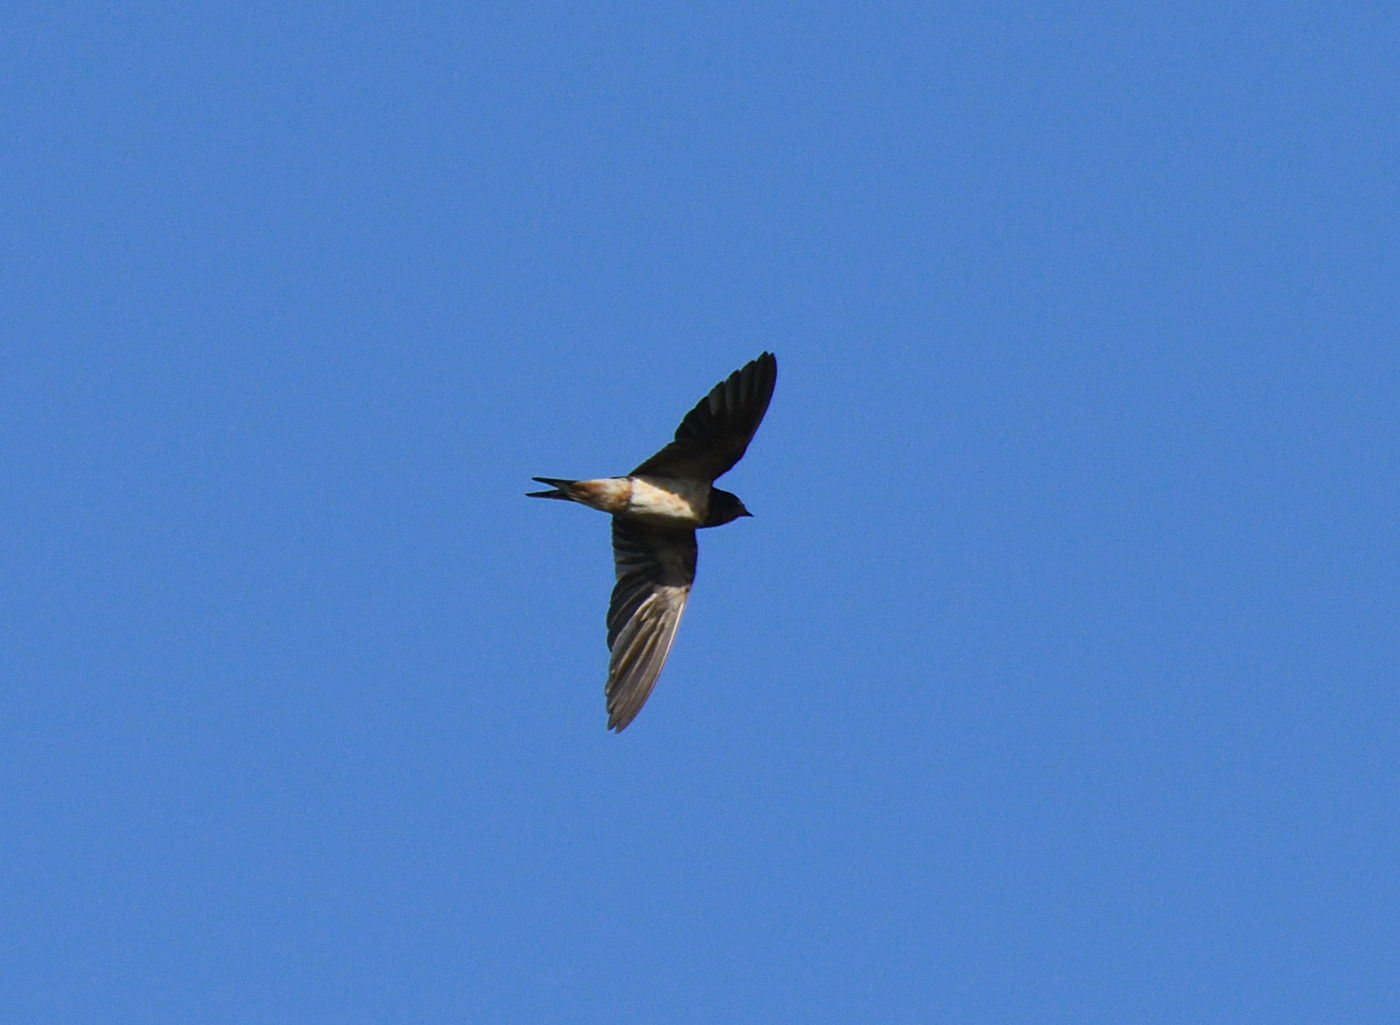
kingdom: Animalia
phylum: Chordata
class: Aves
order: Passeriformes
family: Hirundinidae
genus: Hirundo
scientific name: Hirundo rustica
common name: Barn swallow
